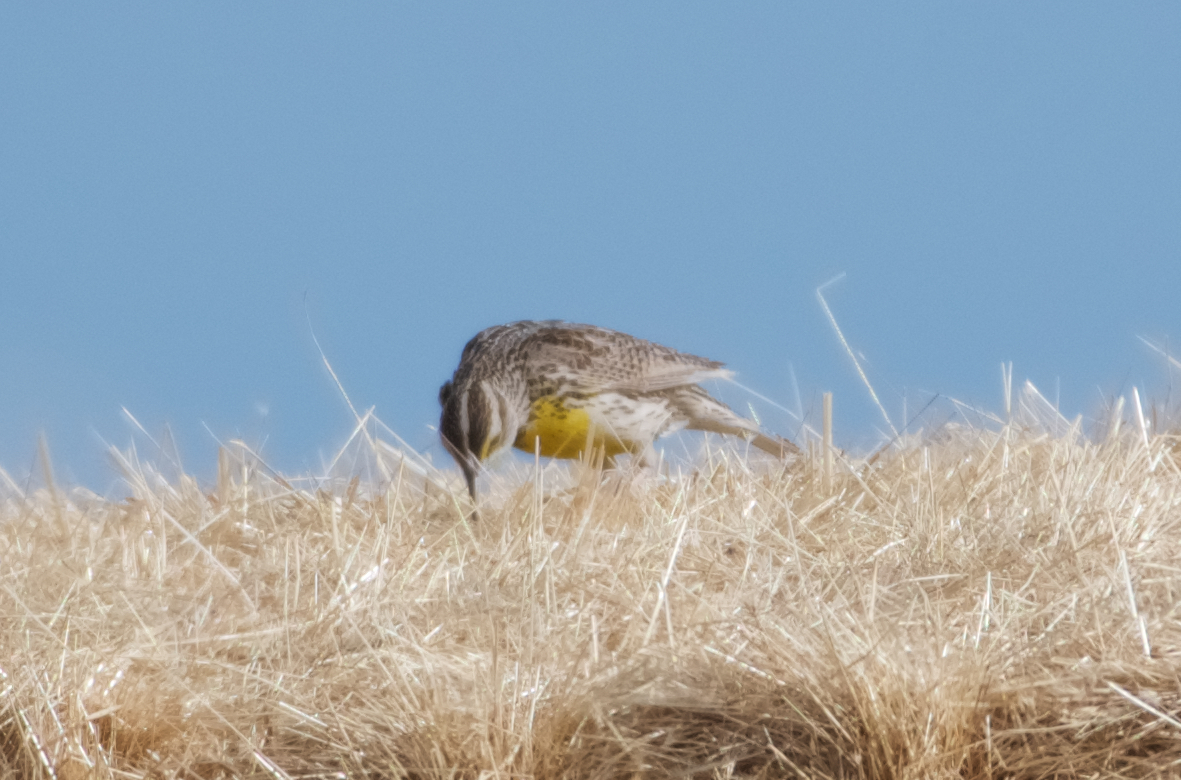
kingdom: Animalia
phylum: Chordata
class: Aves
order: Passeriformes
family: Icteridae
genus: Sturnella
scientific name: Sturnella neglecta
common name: Western meadowlark
